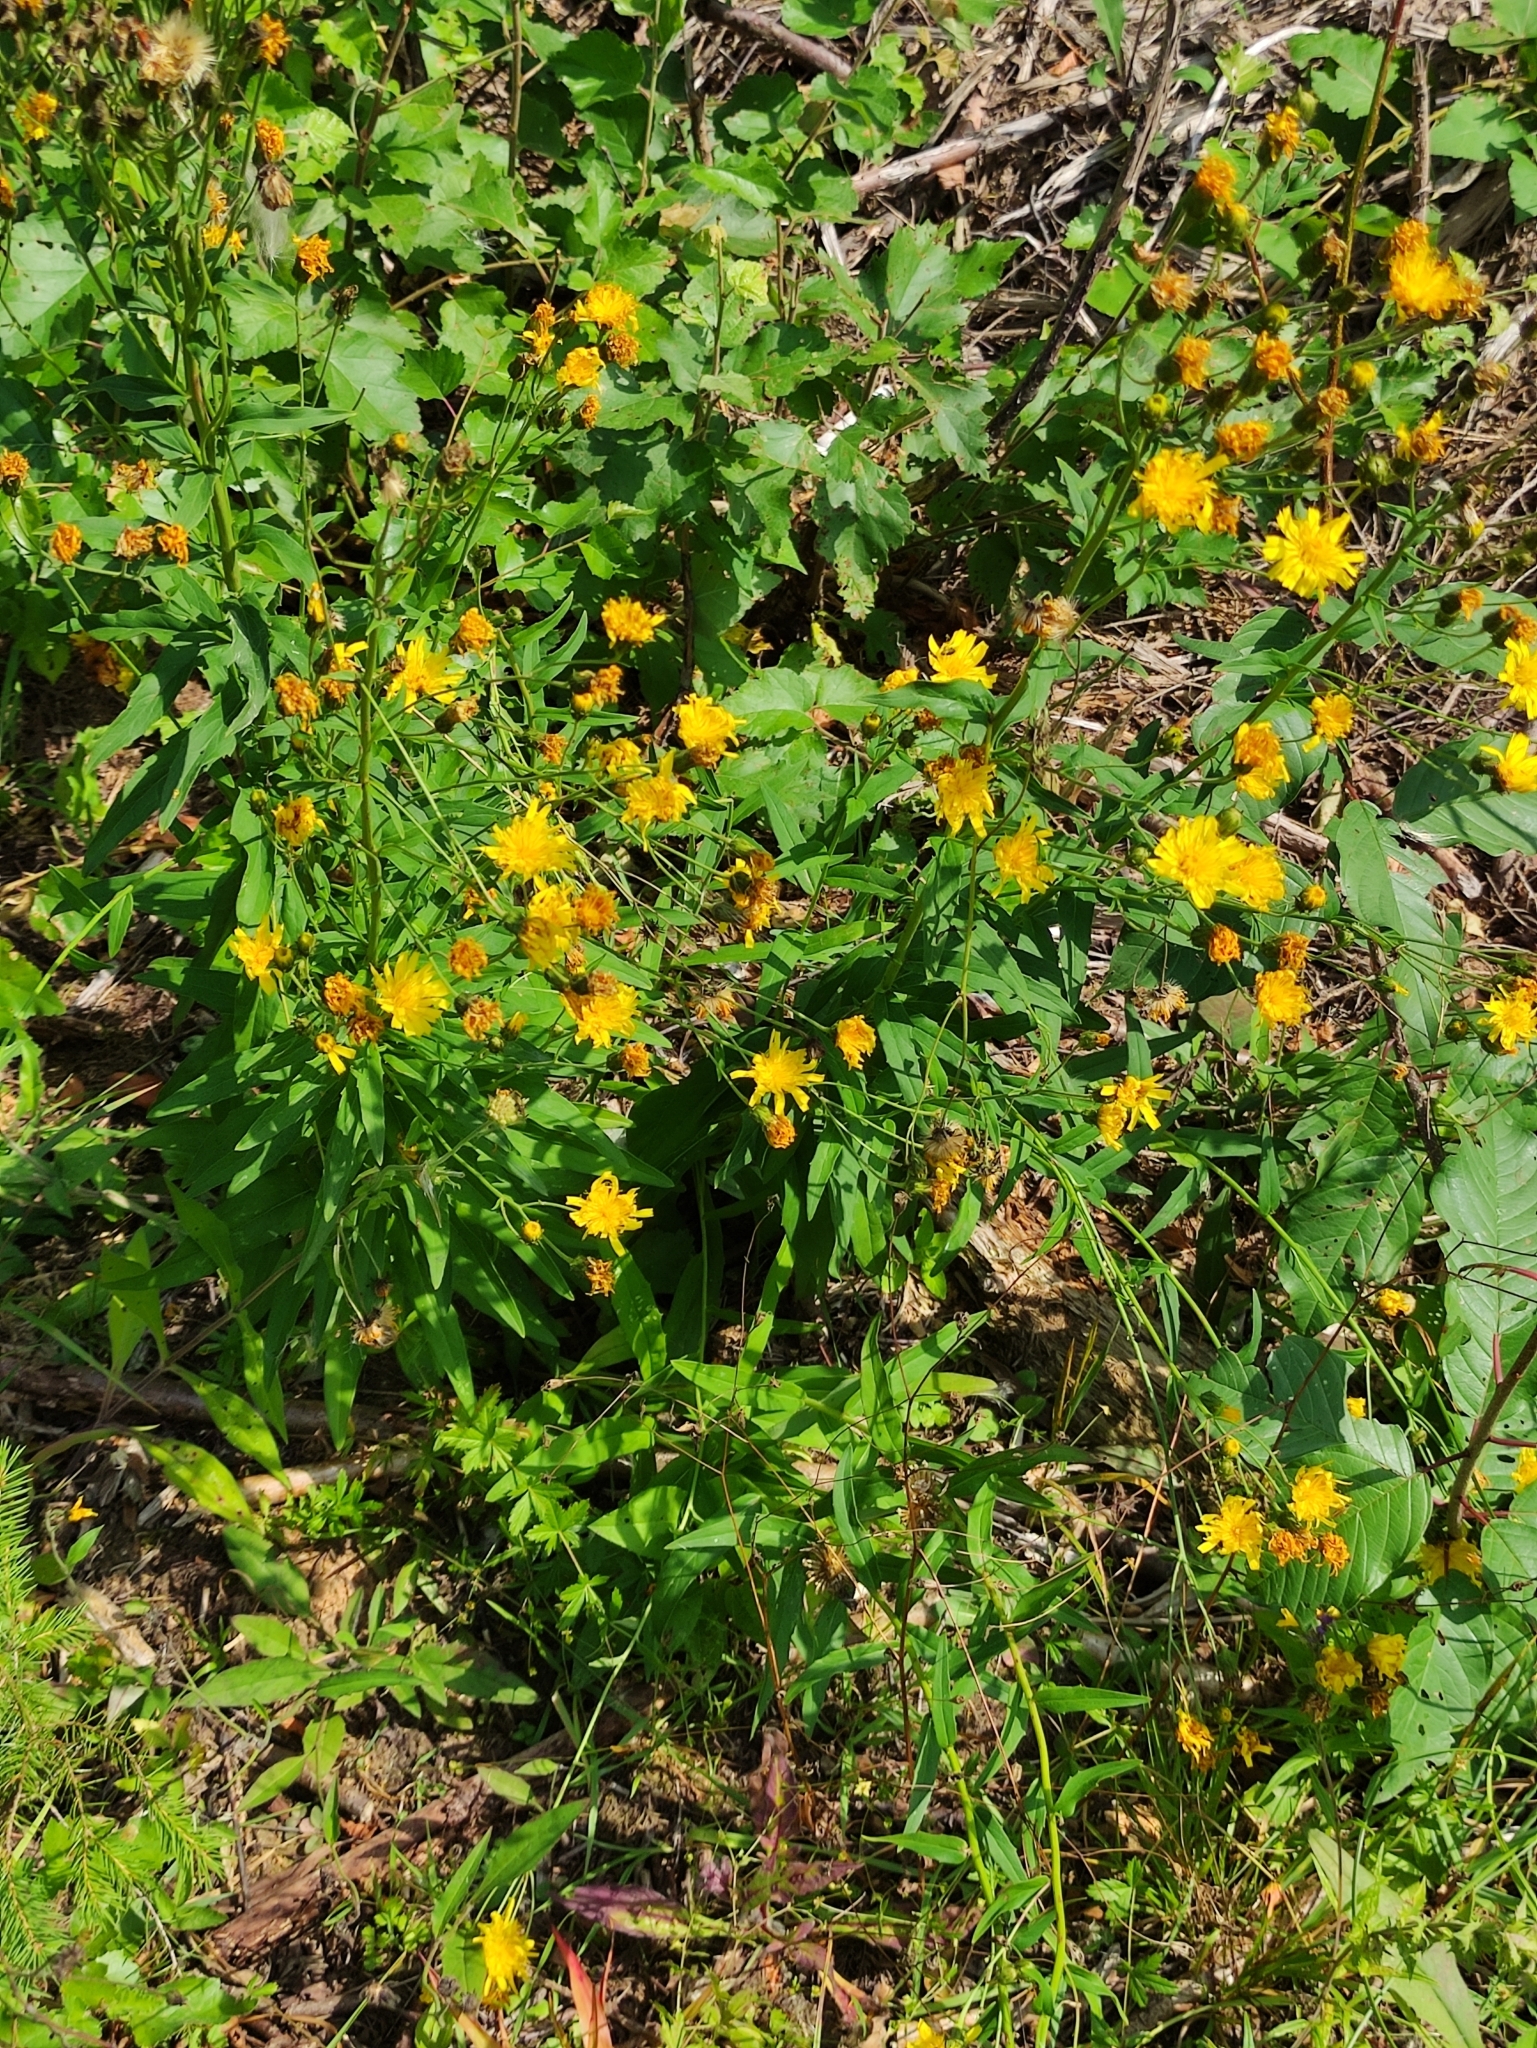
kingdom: Plantae
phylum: Tracheophyta
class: Magnoliopsida
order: Asterales
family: Asteraceae
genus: Hieracium
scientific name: Hieracium umbellatum
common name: Northern hawkweed
